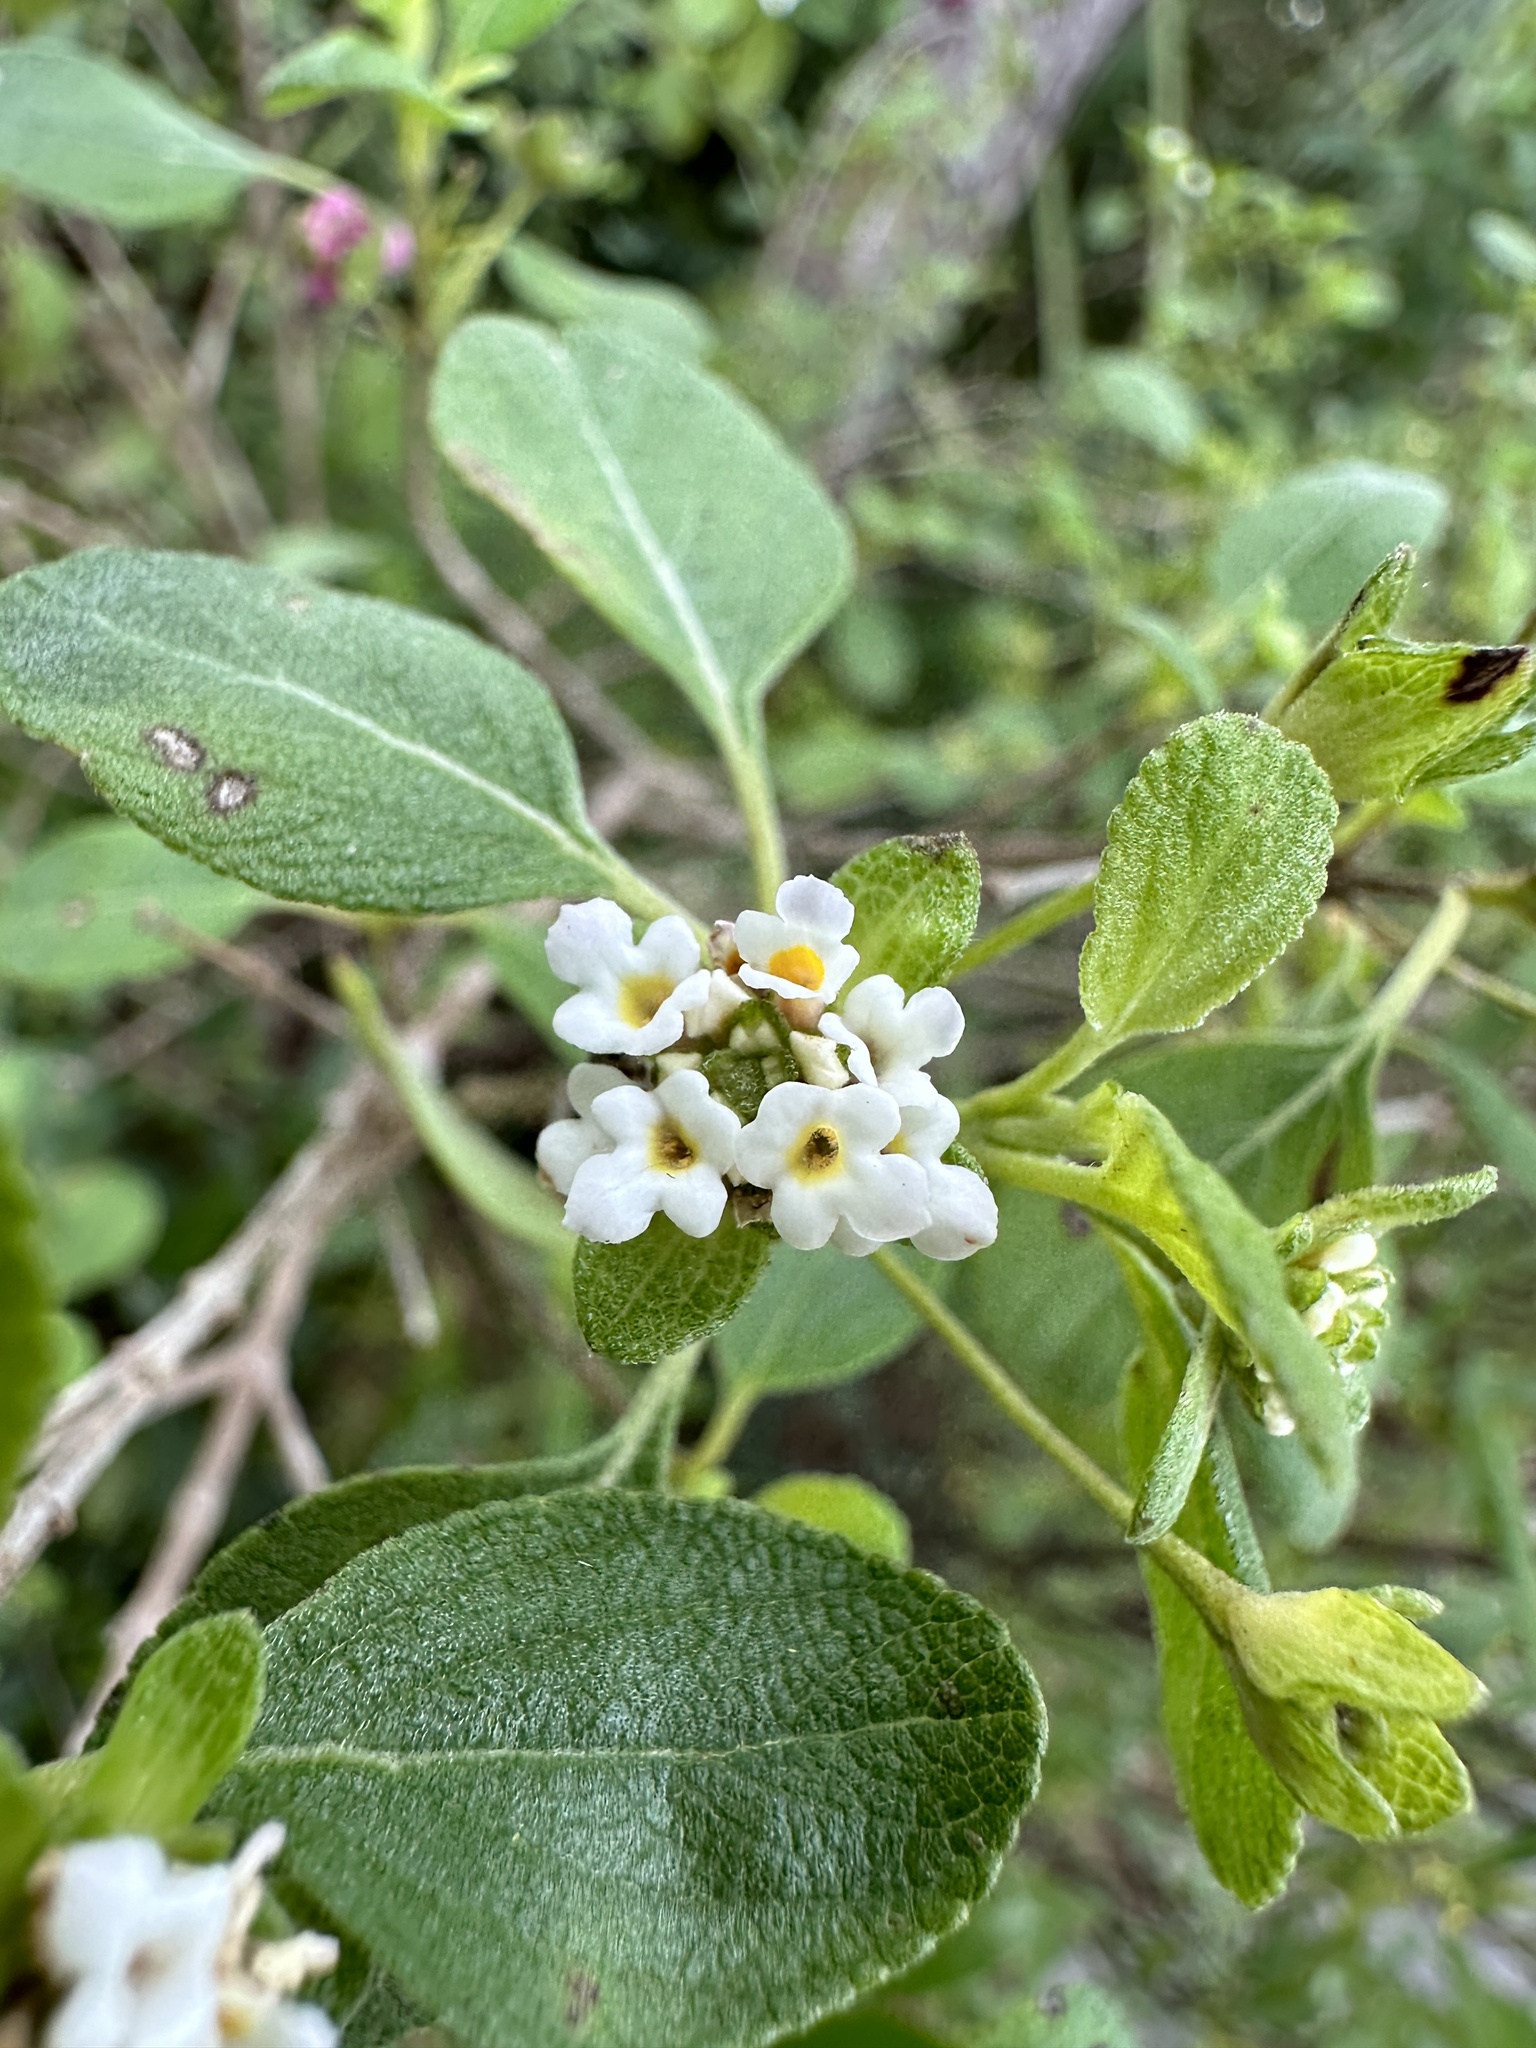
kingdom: Plantae
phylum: Tracheophyta
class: Magnoliopsida
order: Lamiales
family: Verbenaceae
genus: Lantana
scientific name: Lantana involucrata
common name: Black sage
